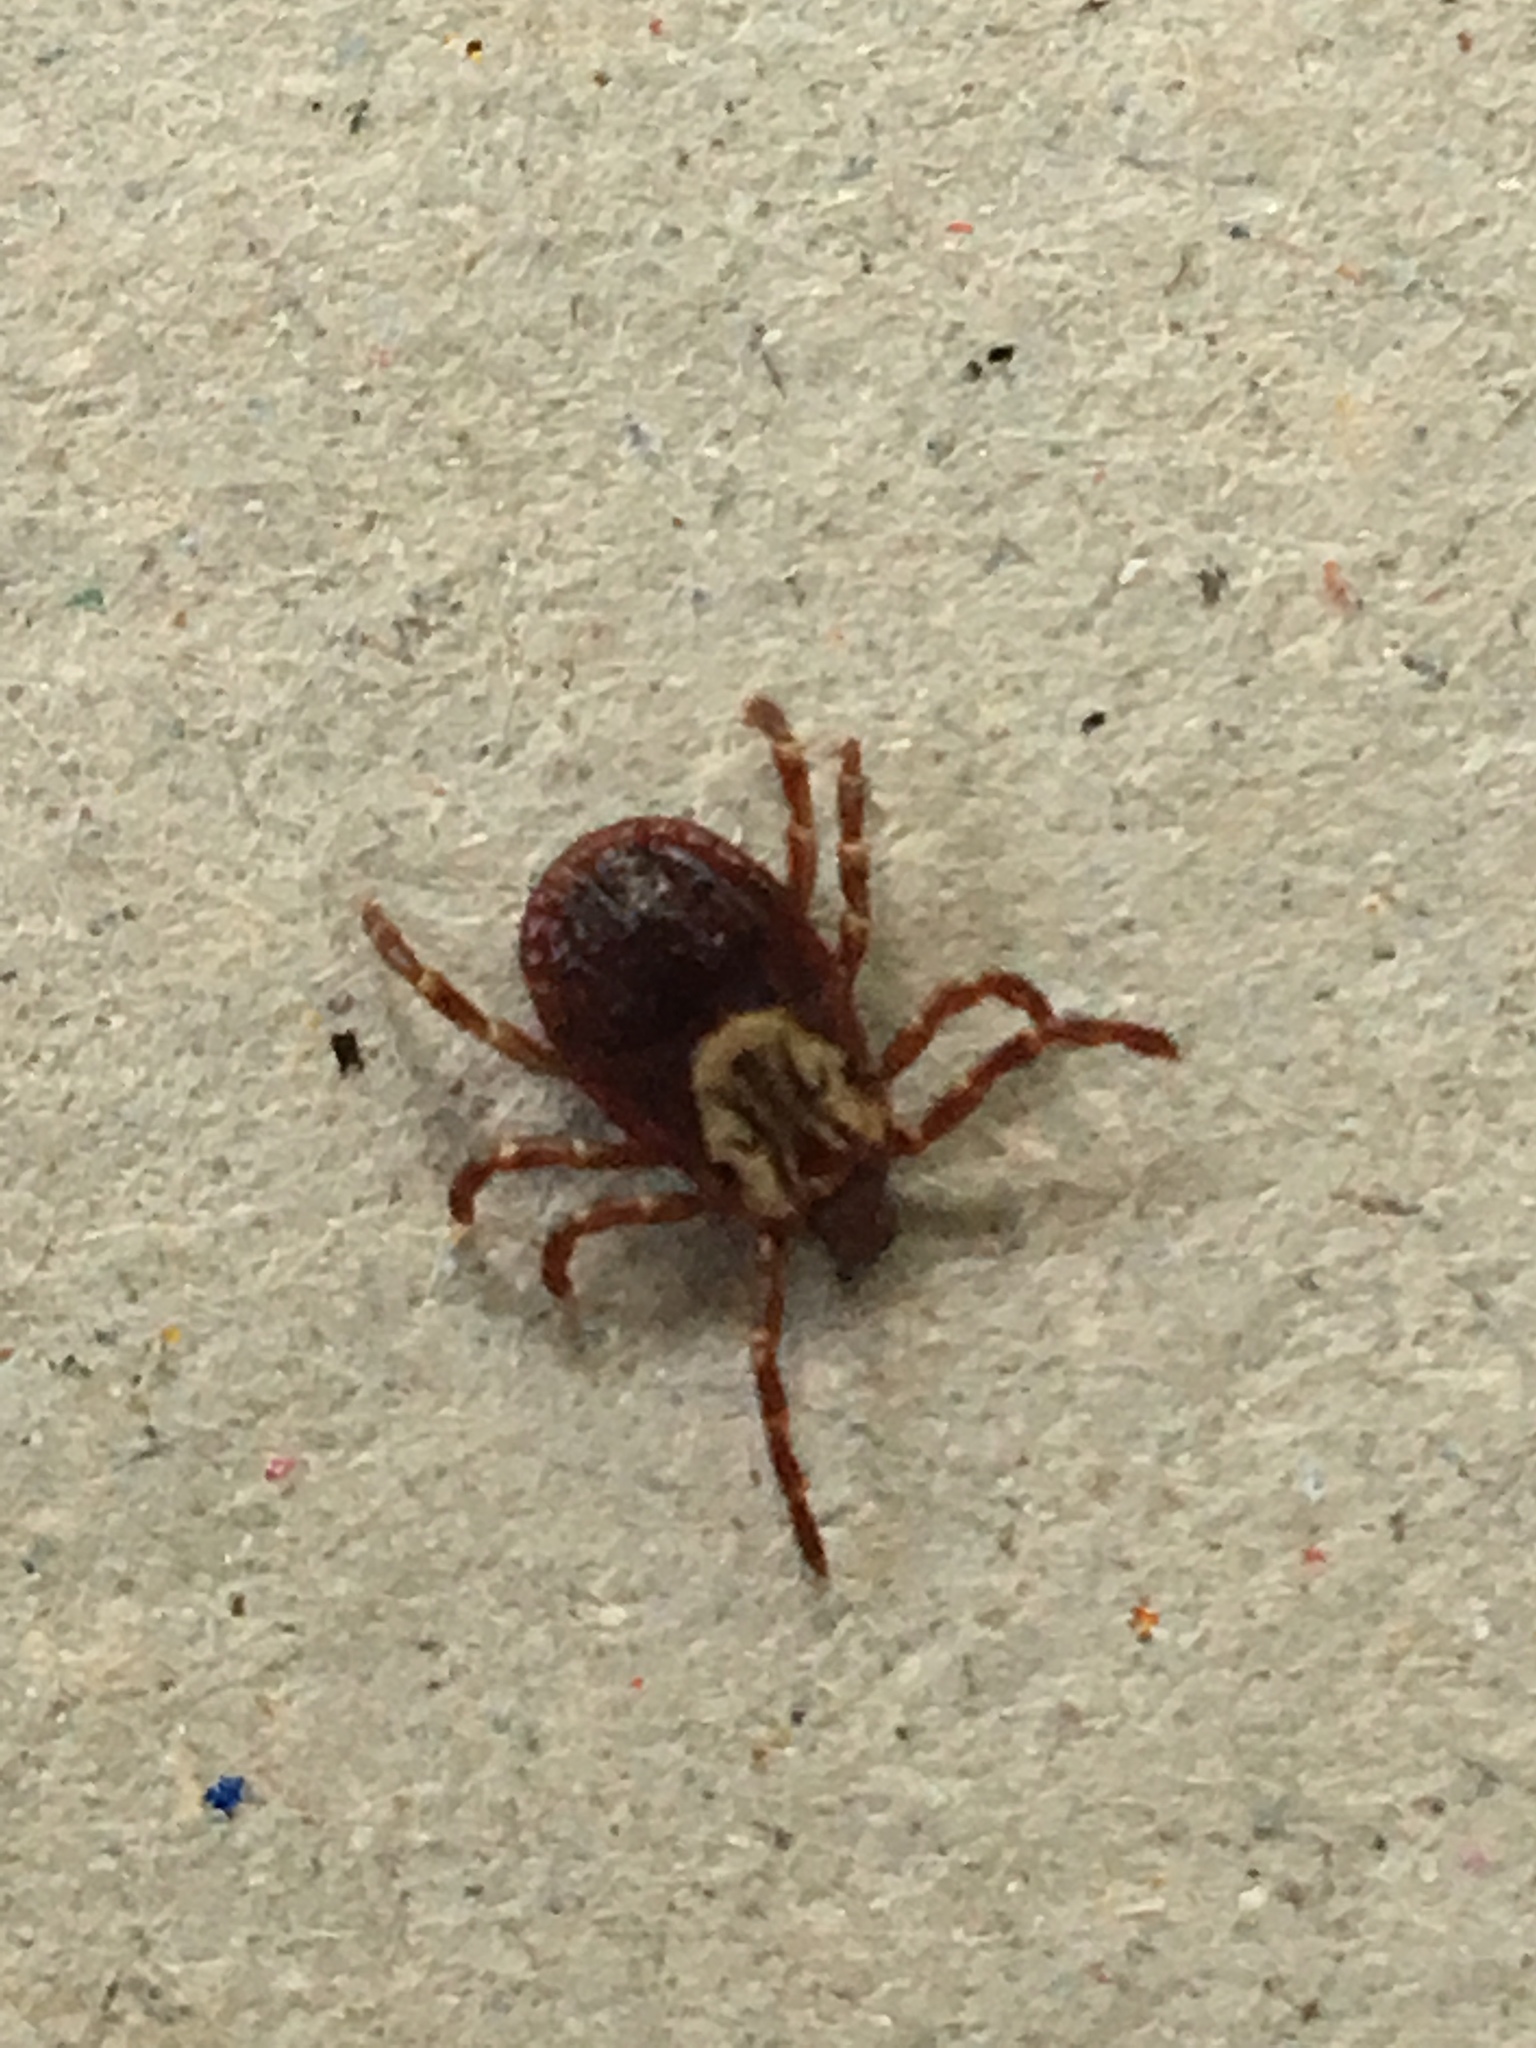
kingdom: Animalia
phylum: Arthropoda
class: Arachnida
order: Ixodida
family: Ixodidae
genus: Dermacentor
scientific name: Dermacentor variabilis
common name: American dog tick
